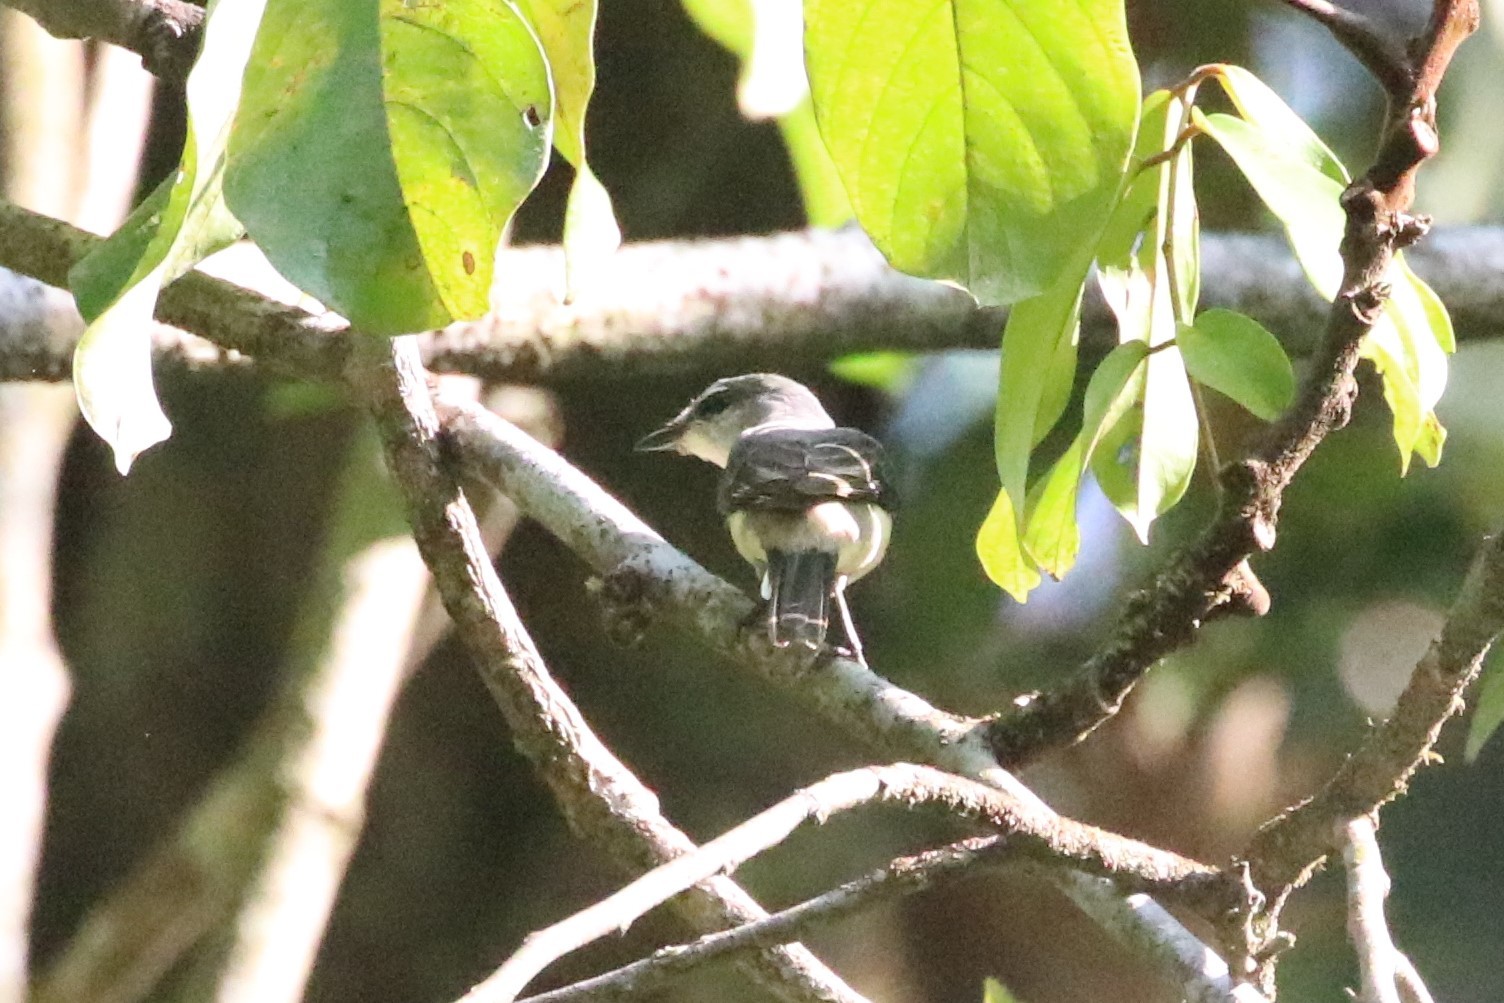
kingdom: Animalia
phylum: Chordata
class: Aves
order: Passeriformes
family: Campephagidae
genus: Pericrocotus
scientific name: Pericrocotus divaricatus
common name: Ashy minivet
